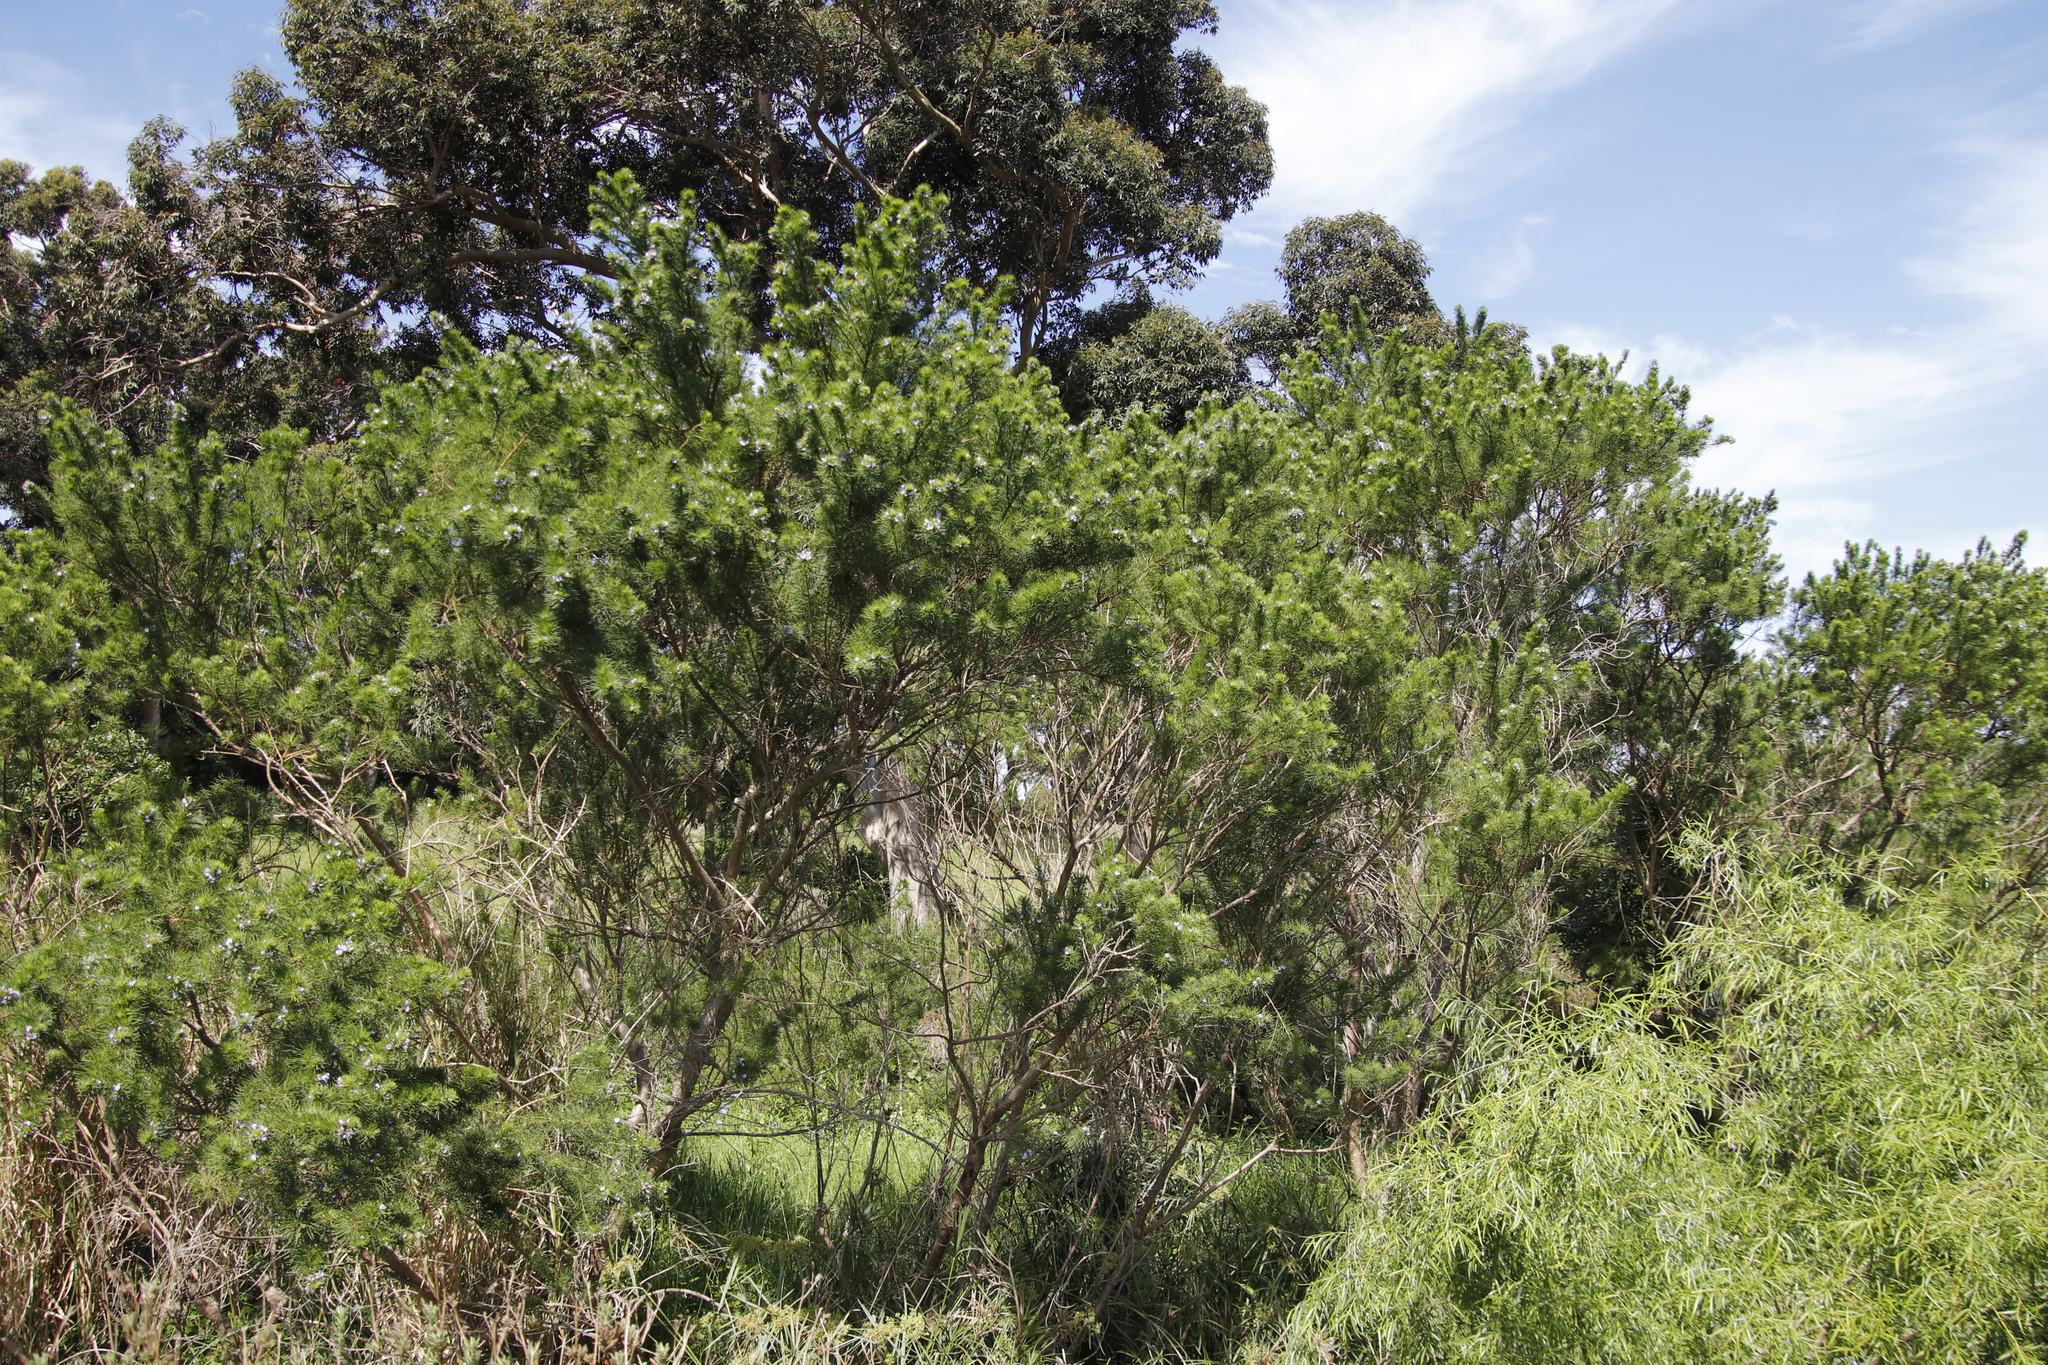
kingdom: Plantae
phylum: Tracheophyta
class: Magnoliopsida
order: Fabales
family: Fabaceae
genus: Psoralea
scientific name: Psoralea pinnata
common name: African scurfpea
